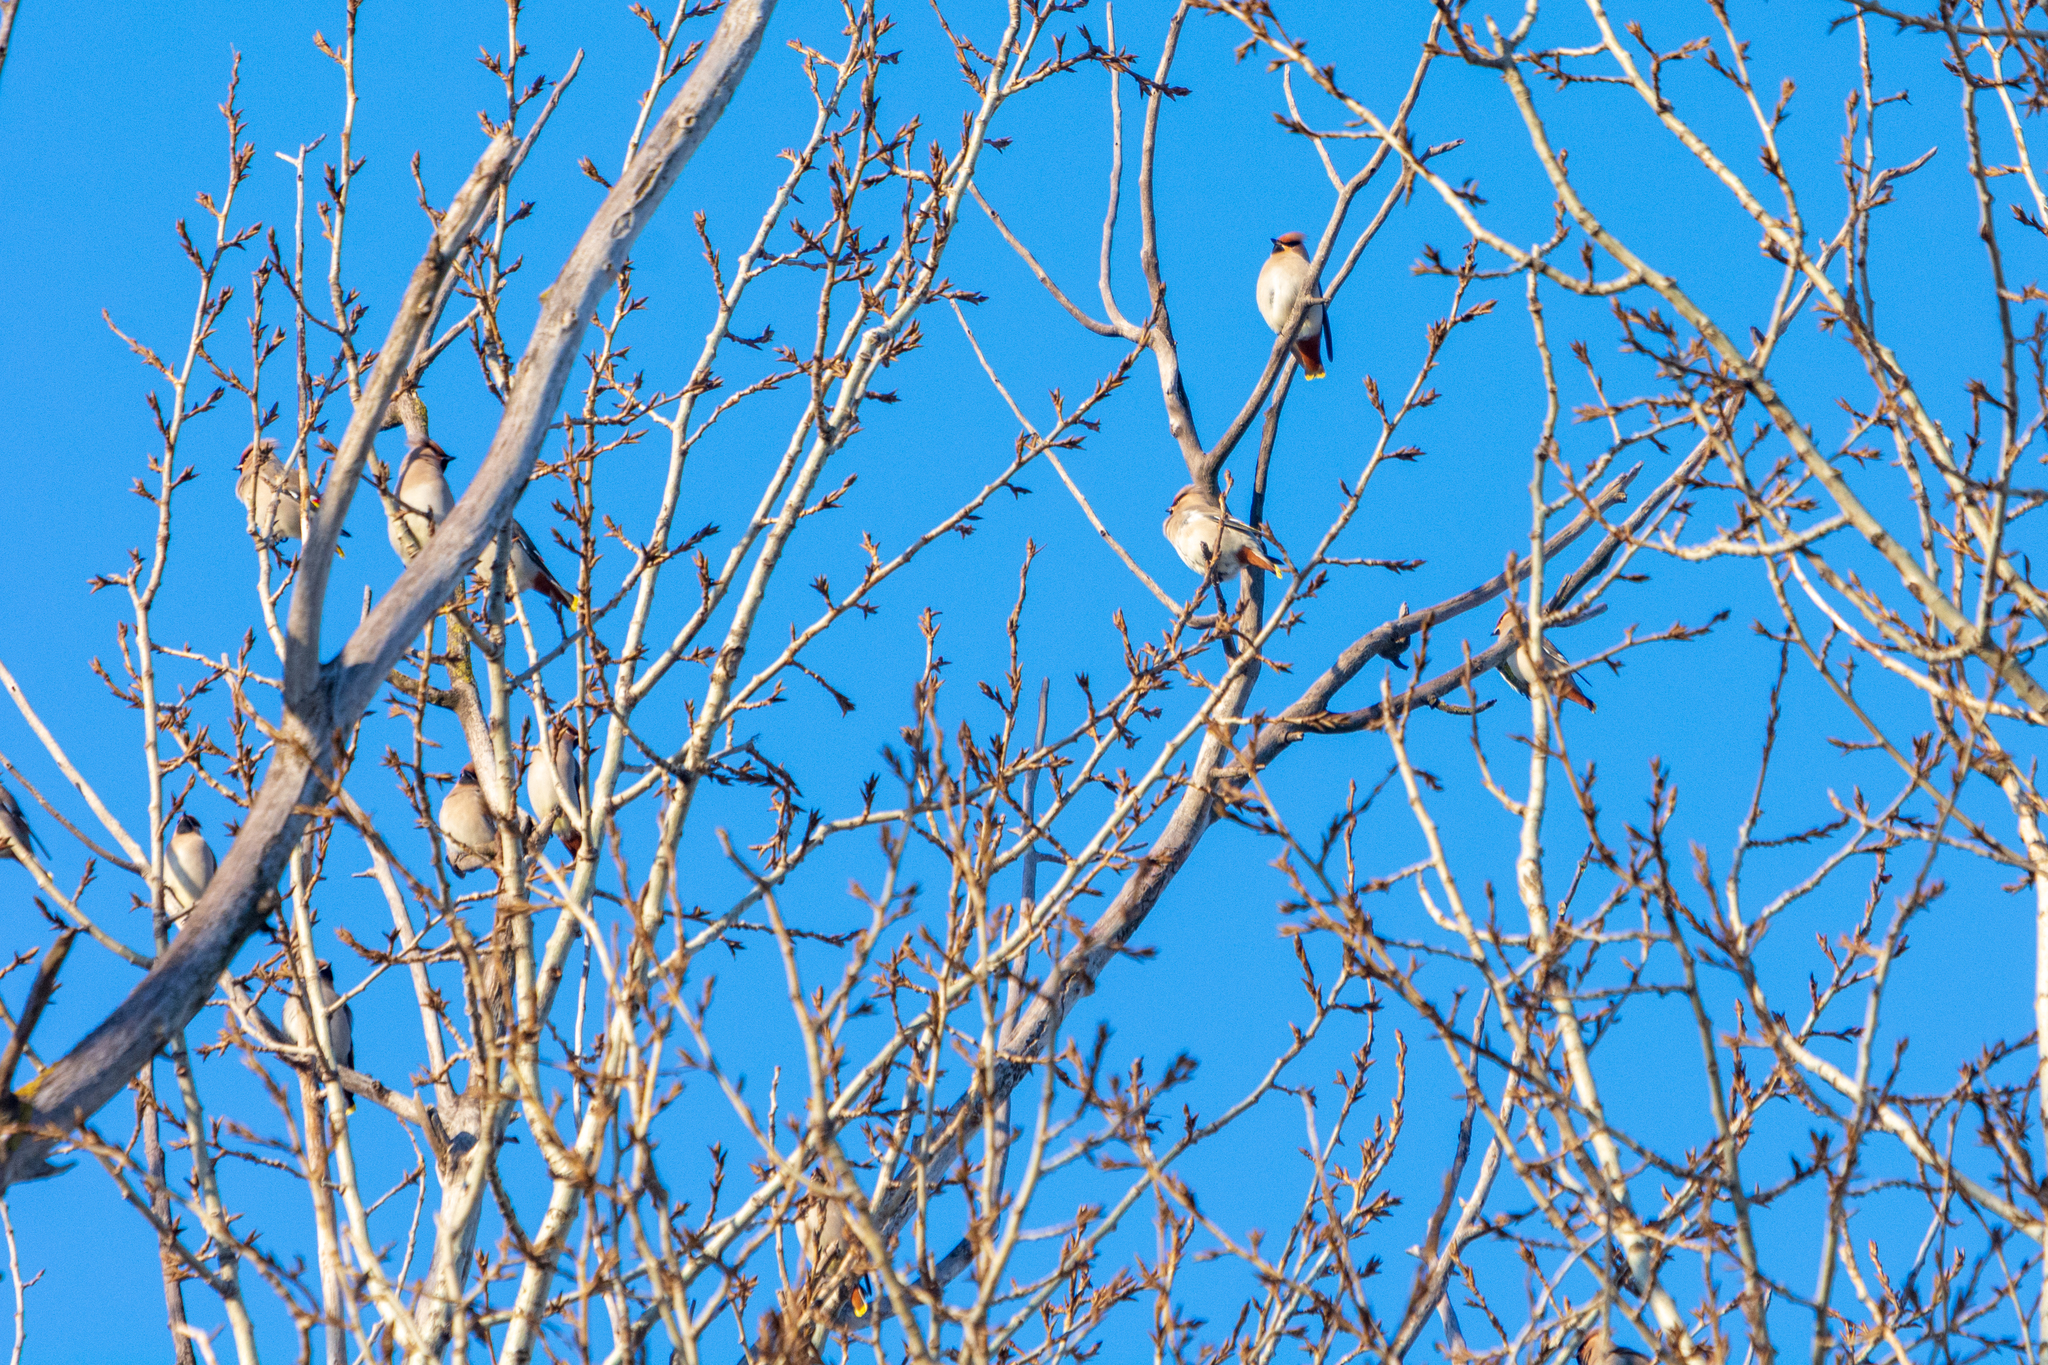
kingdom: Animalia
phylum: Chordata
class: Aves
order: Passeriformes
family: Bombycillidae
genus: Bombycilla
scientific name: Bombycilla garrulus
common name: Bohemian waxwing
